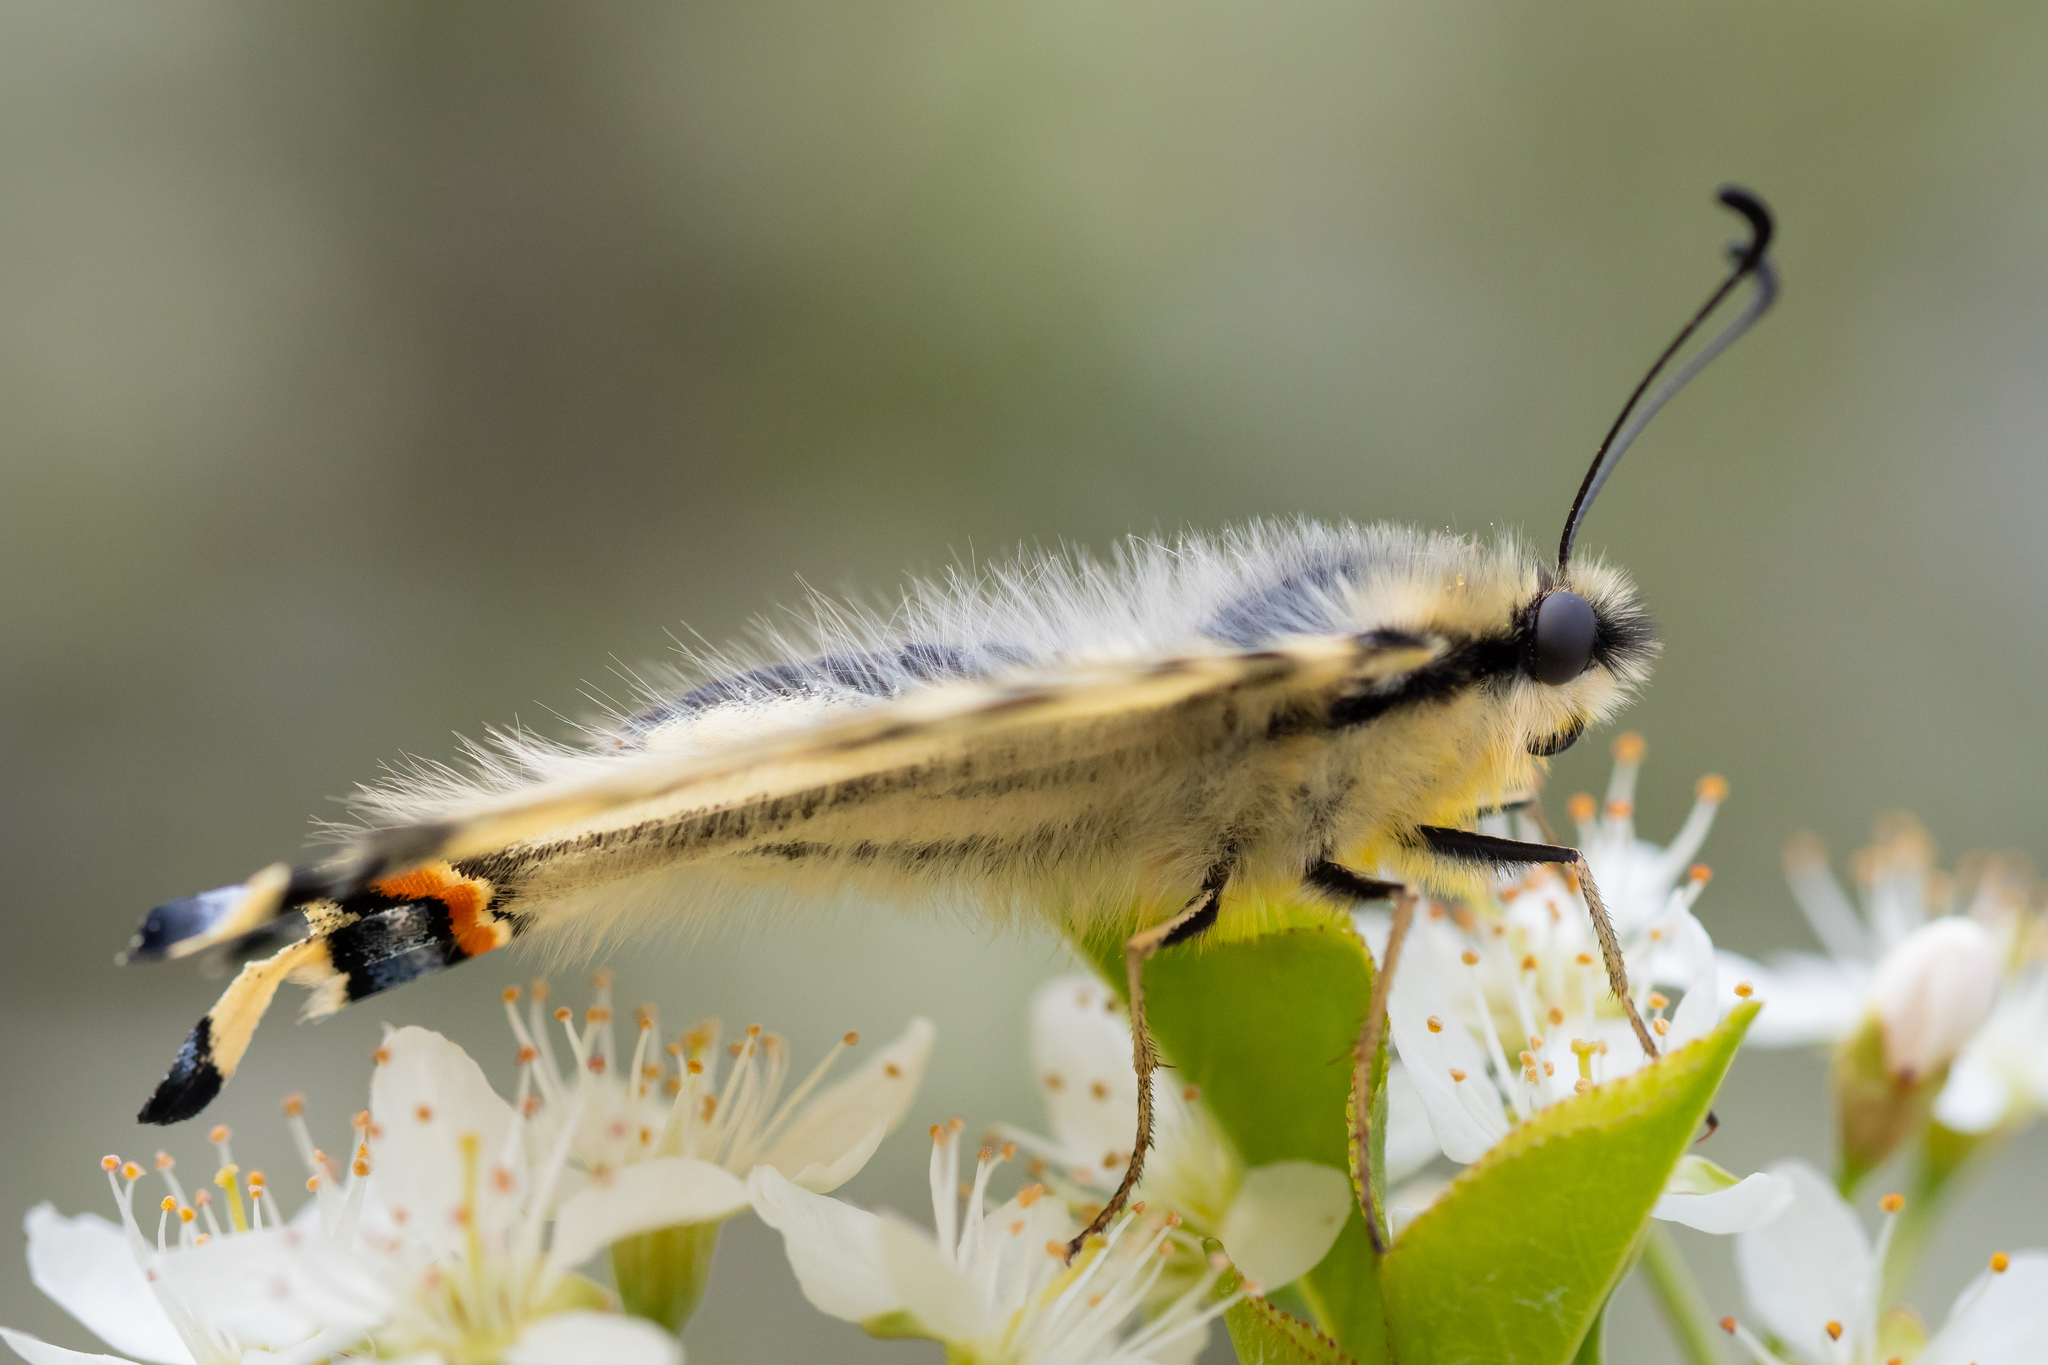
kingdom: Animalia
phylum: Arthropoda
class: Insecta
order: Lepidoptera
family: Papilionidae
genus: Iphiclides
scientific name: Iphiclides podalirius
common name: Scarce swallowtail
